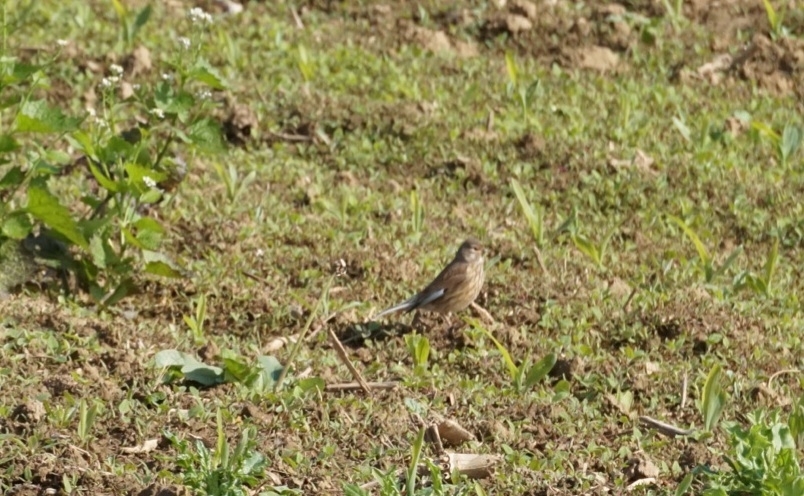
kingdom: Animalia
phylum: Chordata
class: Aves
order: Passeriformes
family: Fringillidae
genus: Linaria
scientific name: Linaria cannabina
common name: Common linnet
